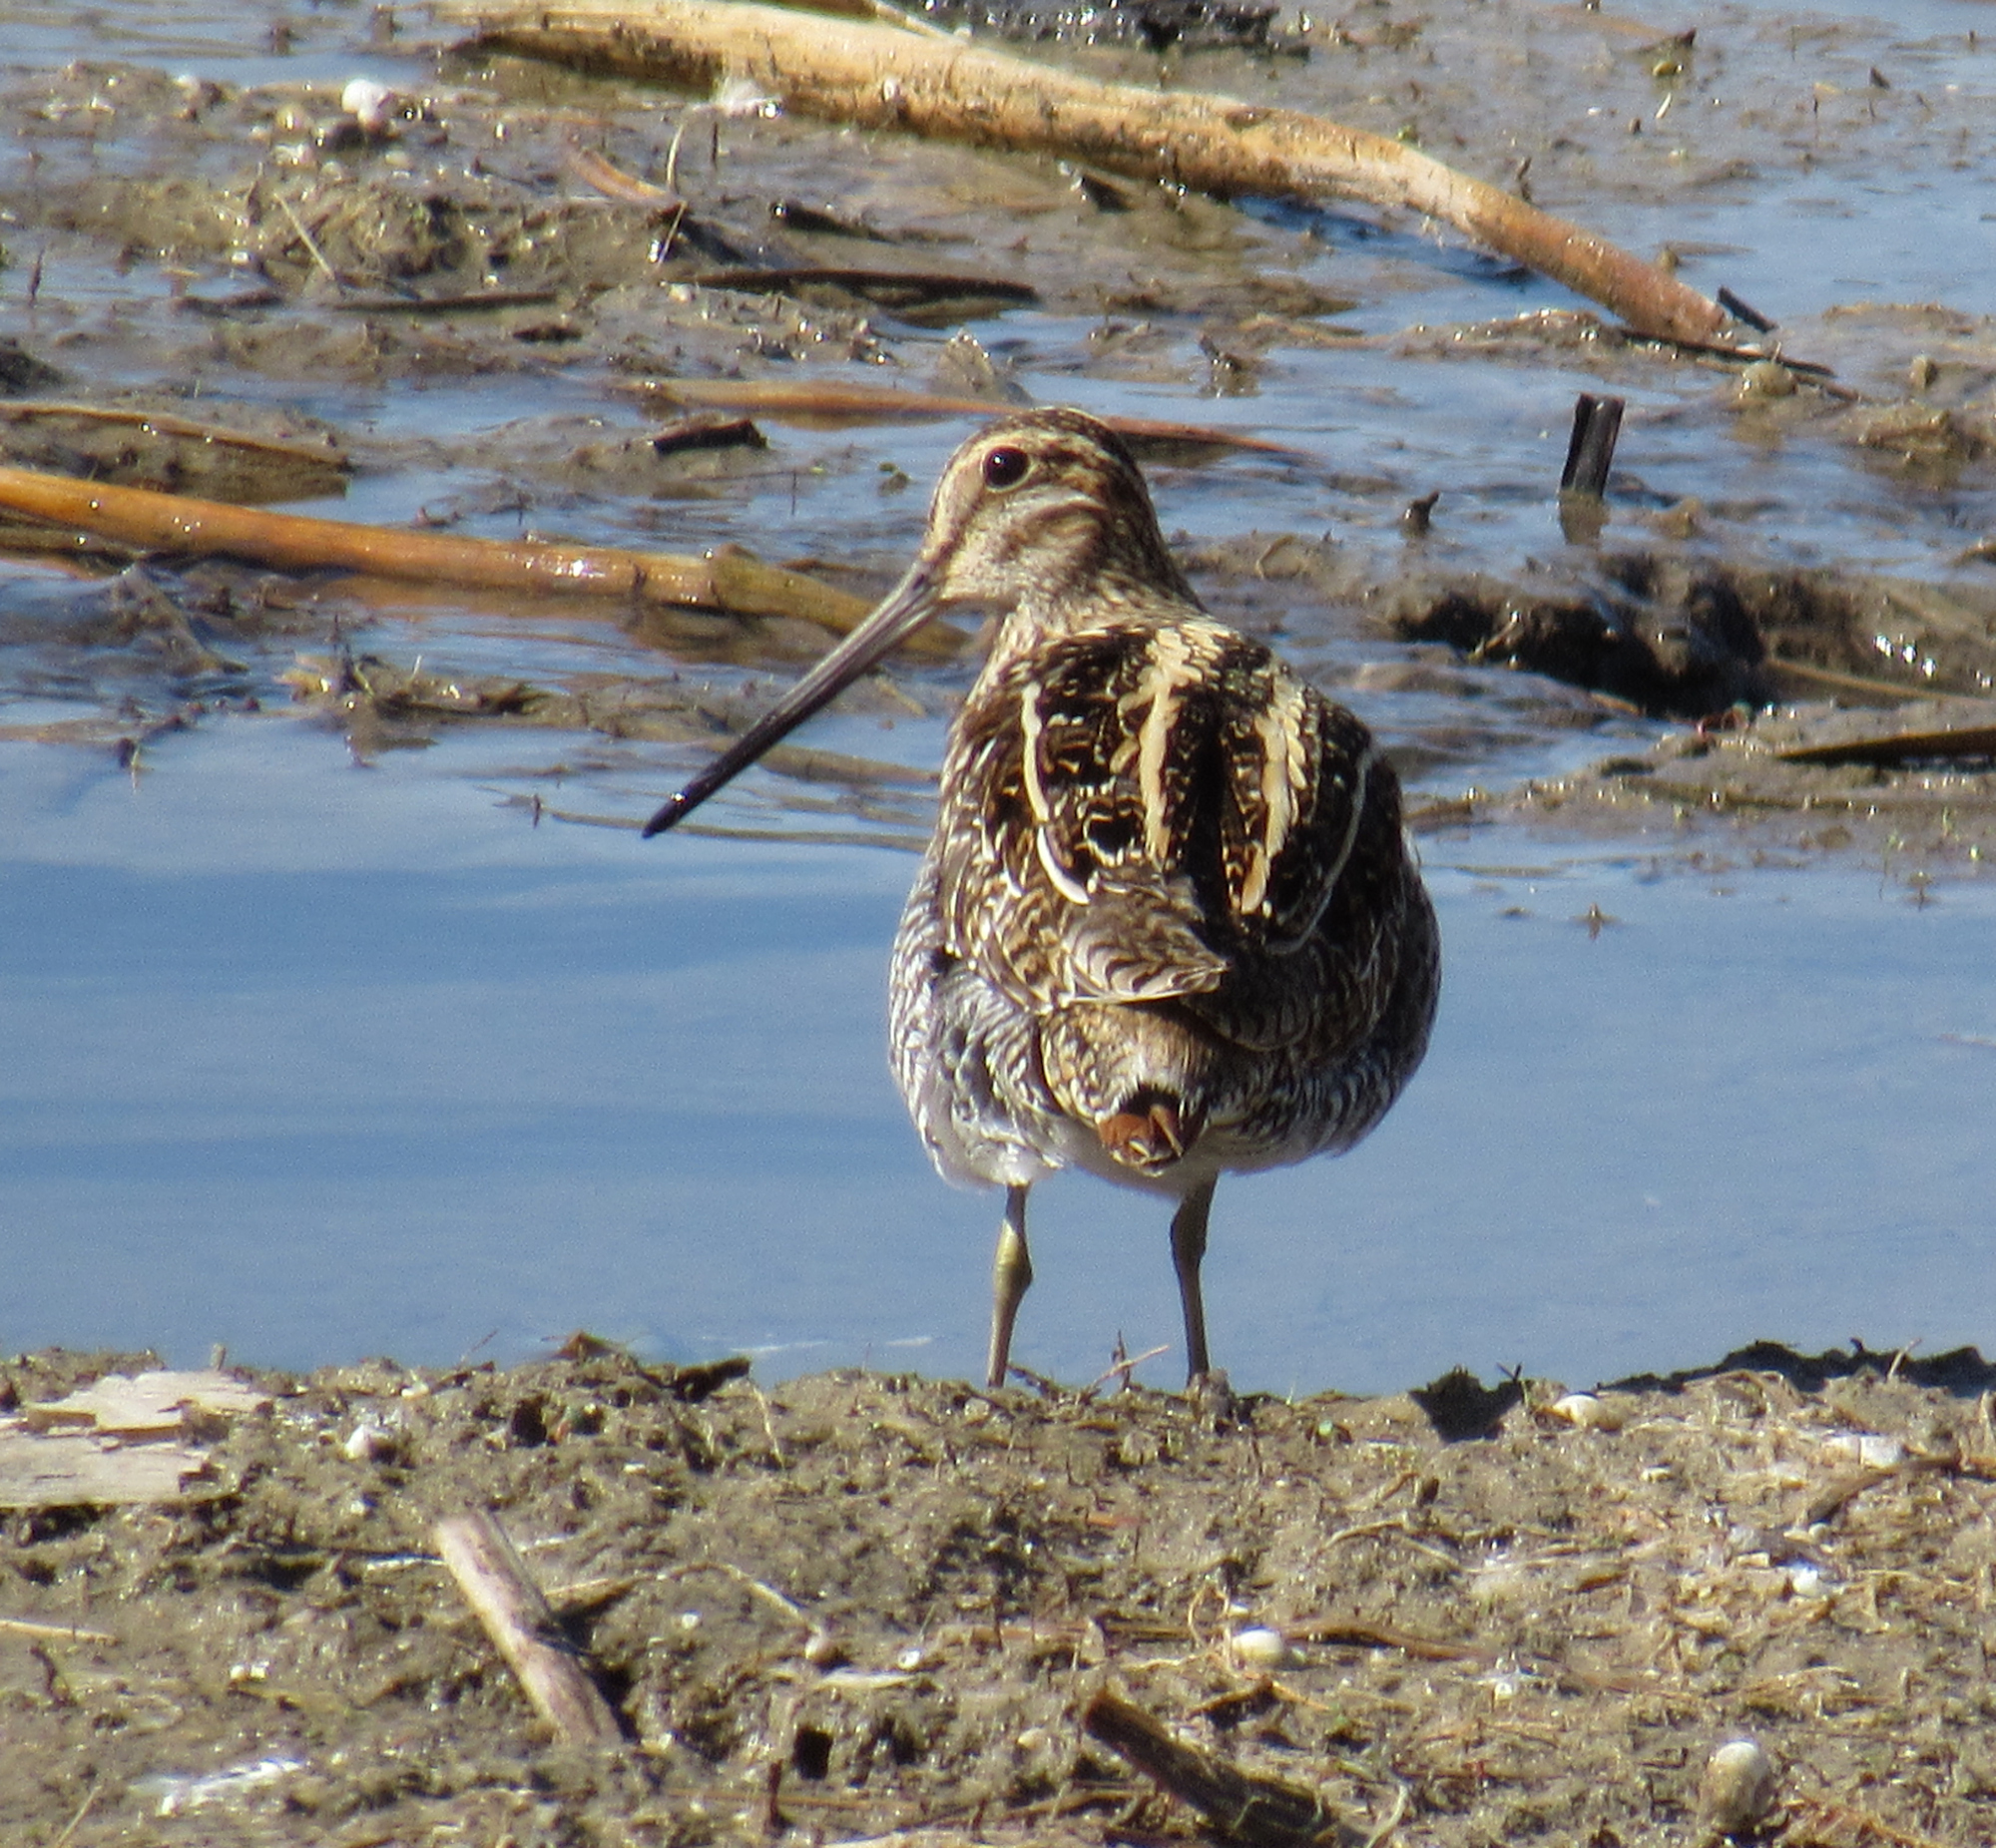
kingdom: Animalia
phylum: Chordata
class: Aves
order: Charadriiformes
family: Scolopacidae
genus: Gallinago
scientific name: Gallinago delicata
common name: Wilson's snipe
